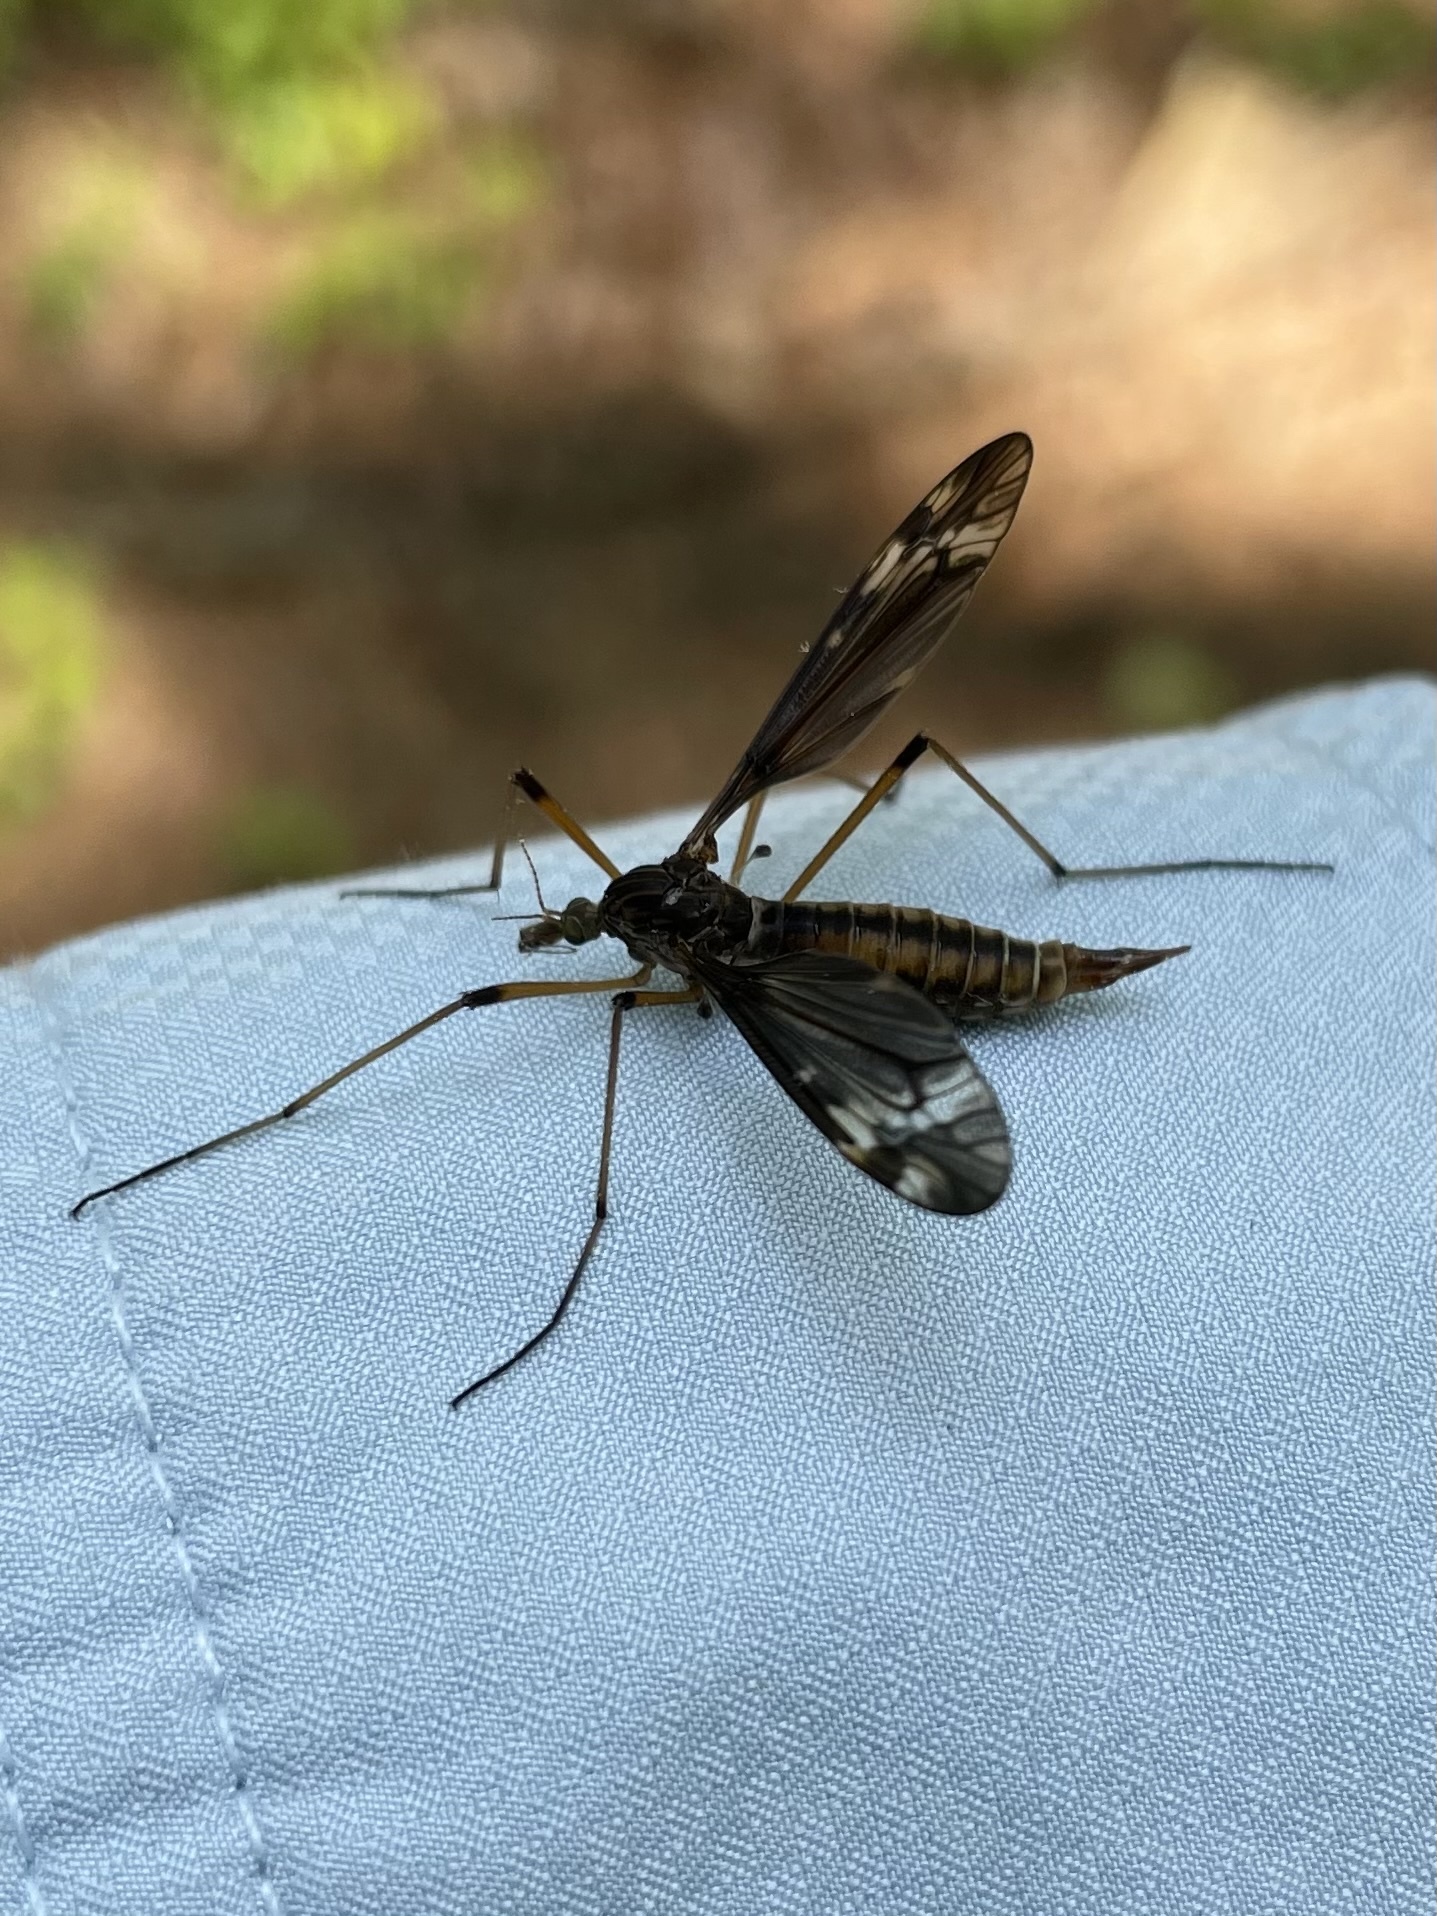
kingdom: Animalia
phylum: Arthropoda
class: Insecta
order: Diptera
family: Tipulidae
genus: Tipula
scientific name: Tipula fuliginosa
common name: Sooty crane fly
